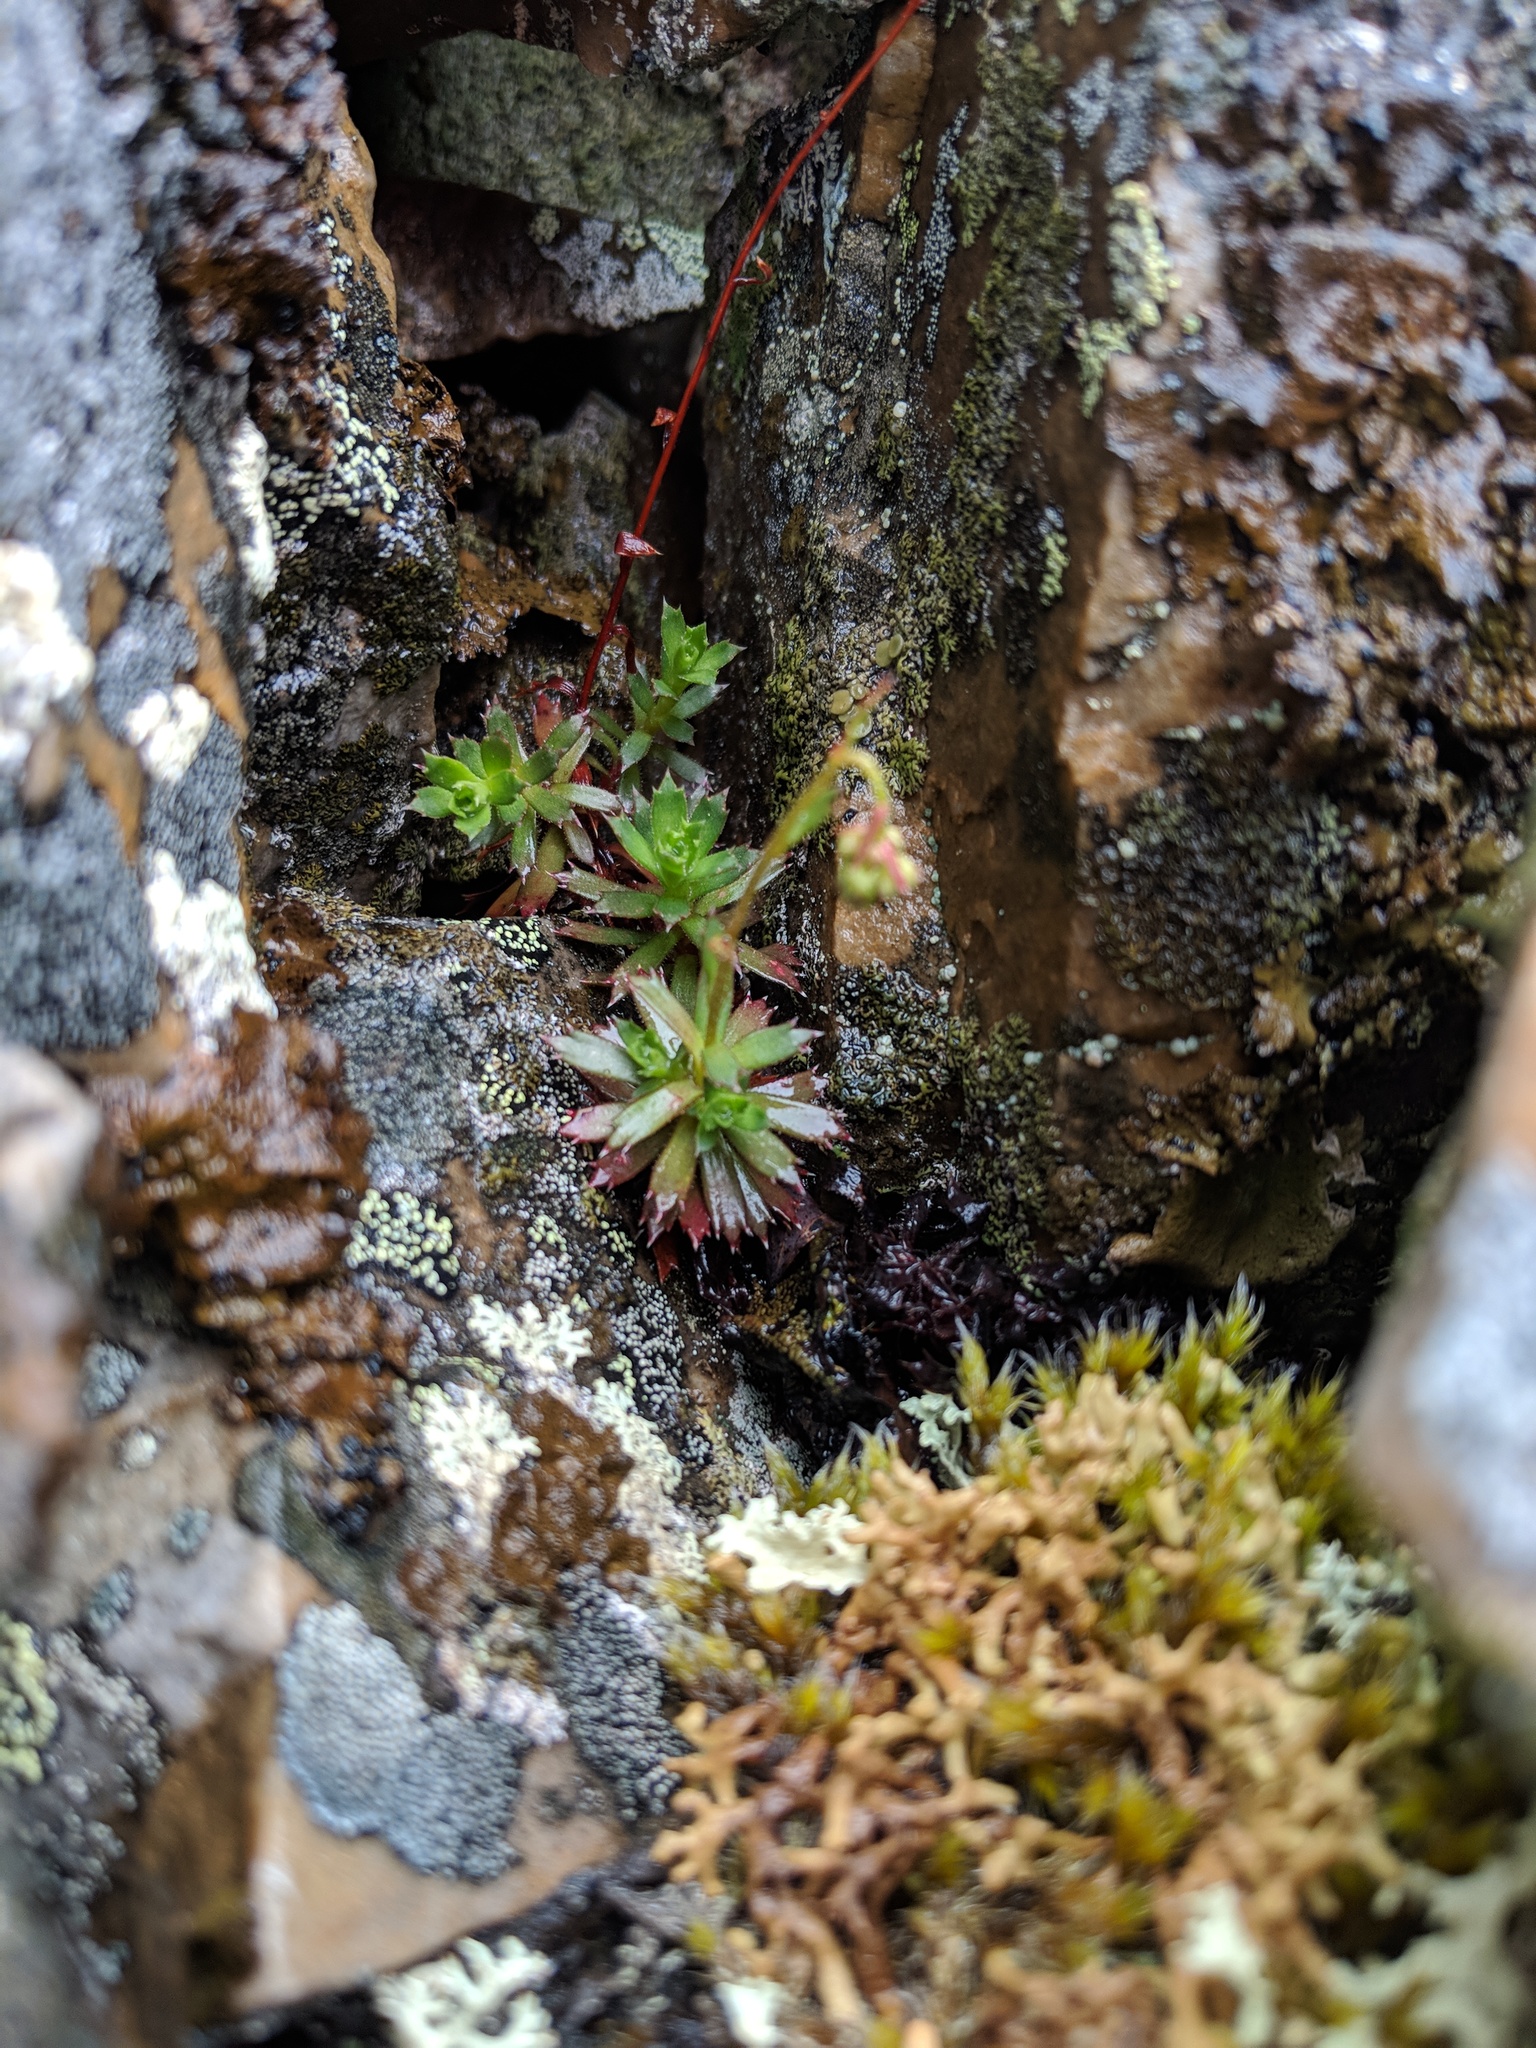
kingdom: Plantae
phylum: Tracheophyta
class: Magnoliopsida
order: Saxifragales
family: Saxifragaceae
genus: Saxifraga
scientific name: Saxifraga tricuspidata
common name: Prickly saxifrage
